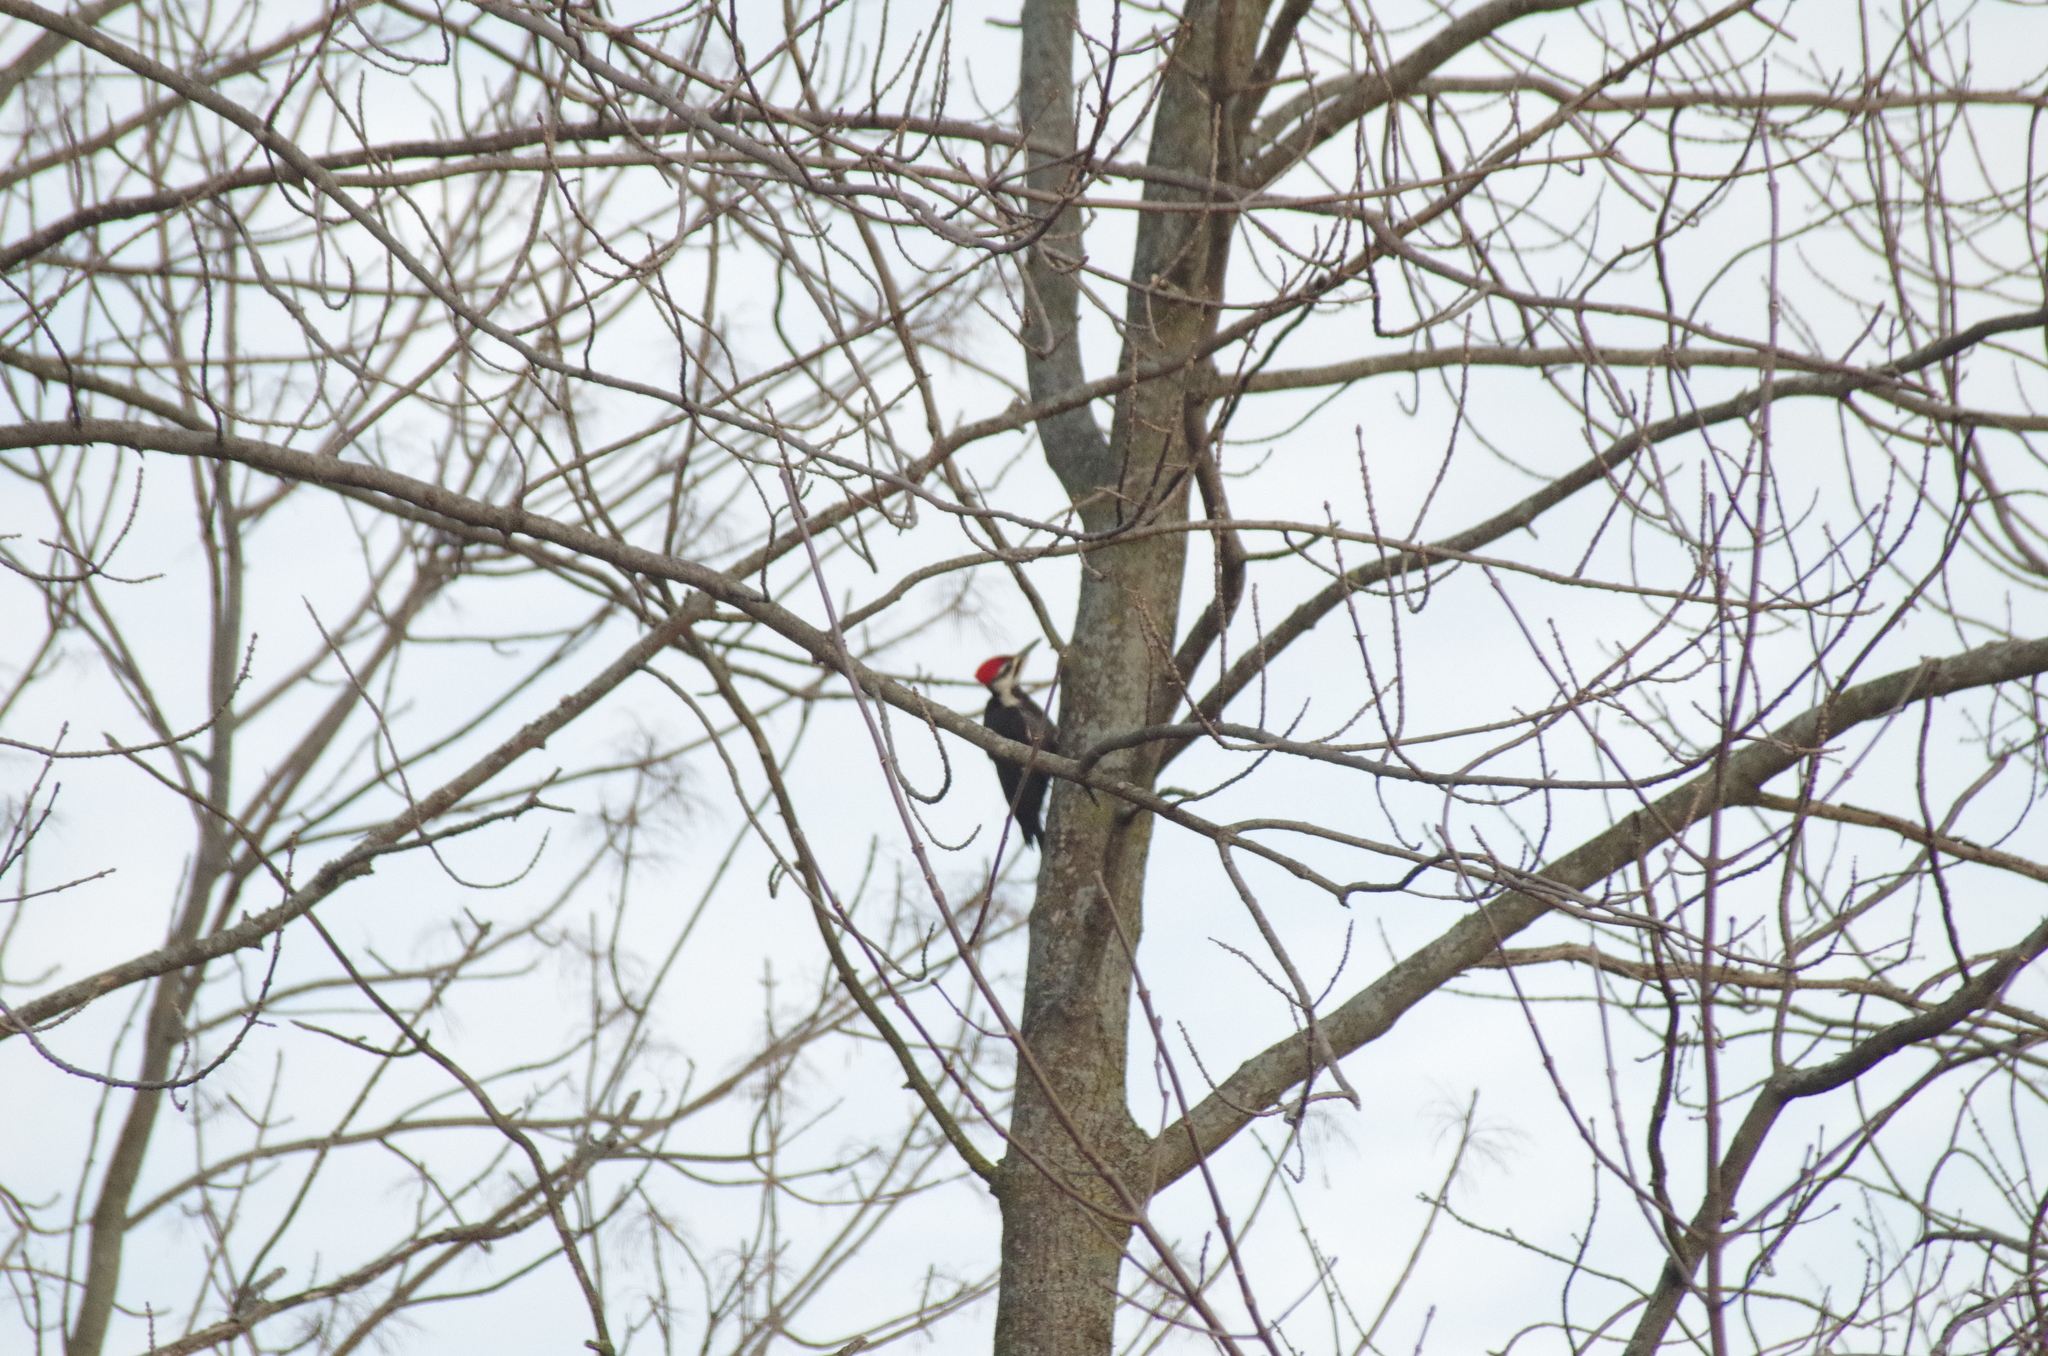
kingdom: Animalia
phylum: Chordata
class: Aves
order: Piciformes
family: Picidae
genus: Dryocopus
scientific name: Dryocopus pileatus
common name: Pileated woodpecker
